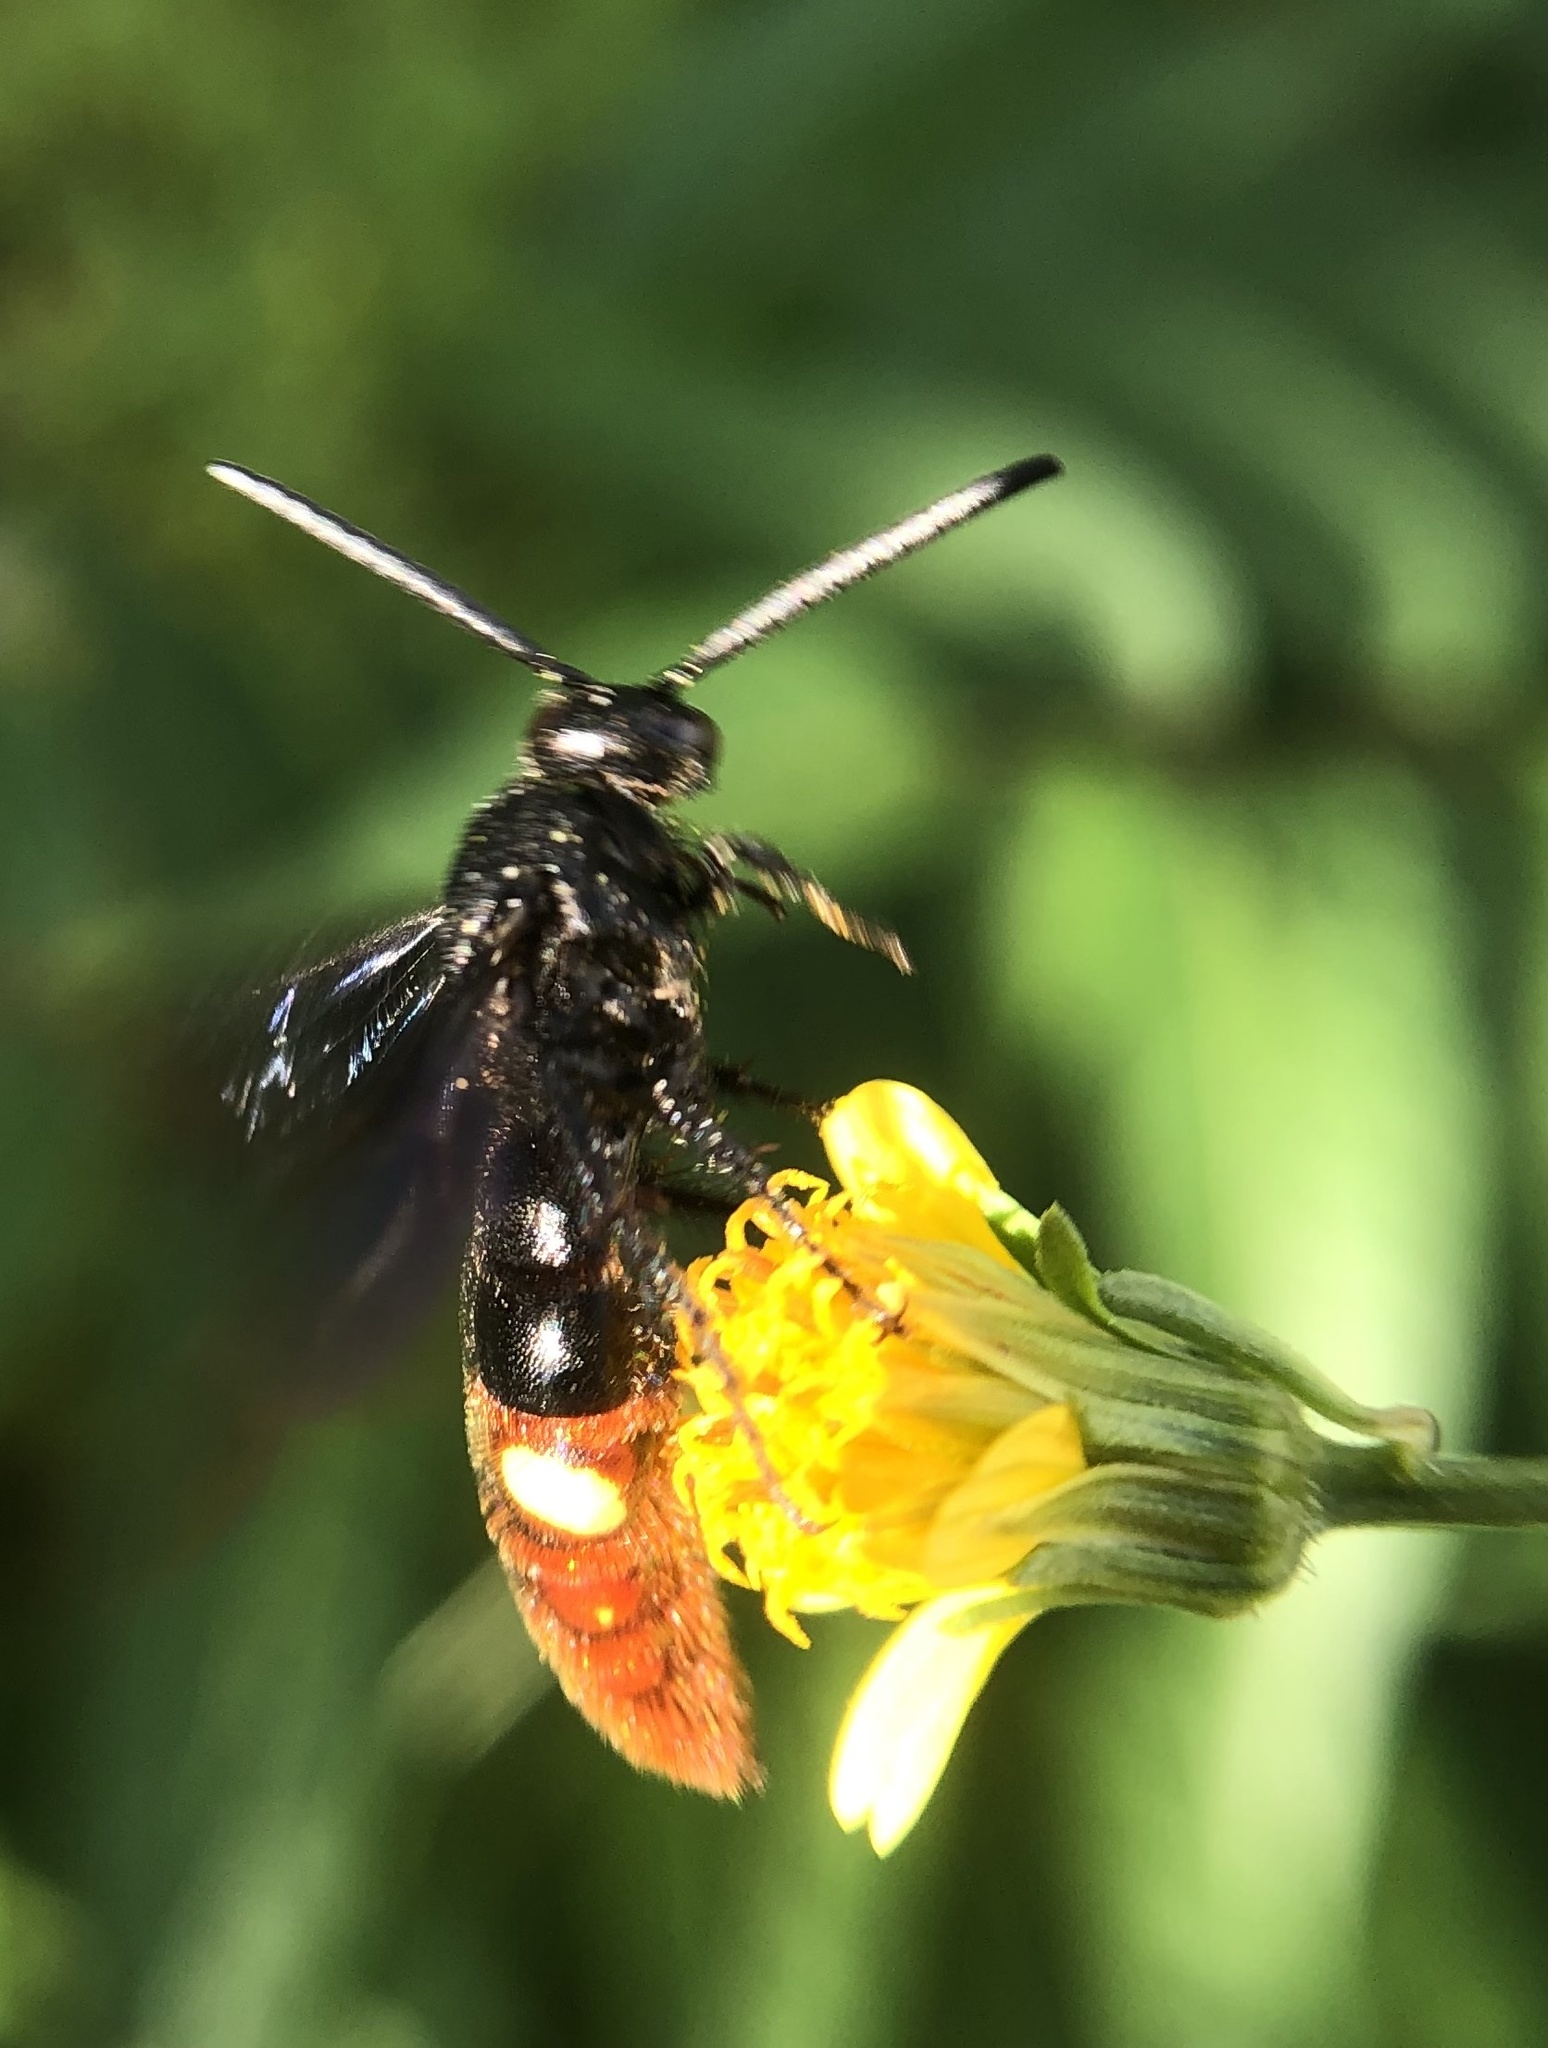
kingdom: Animalia
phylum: Arthropoda
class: Insecta
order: Hymenoptera
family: Scoliidae
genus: Scolia
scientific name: Scolia dubia
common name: Blue-winged scoliid wasp
